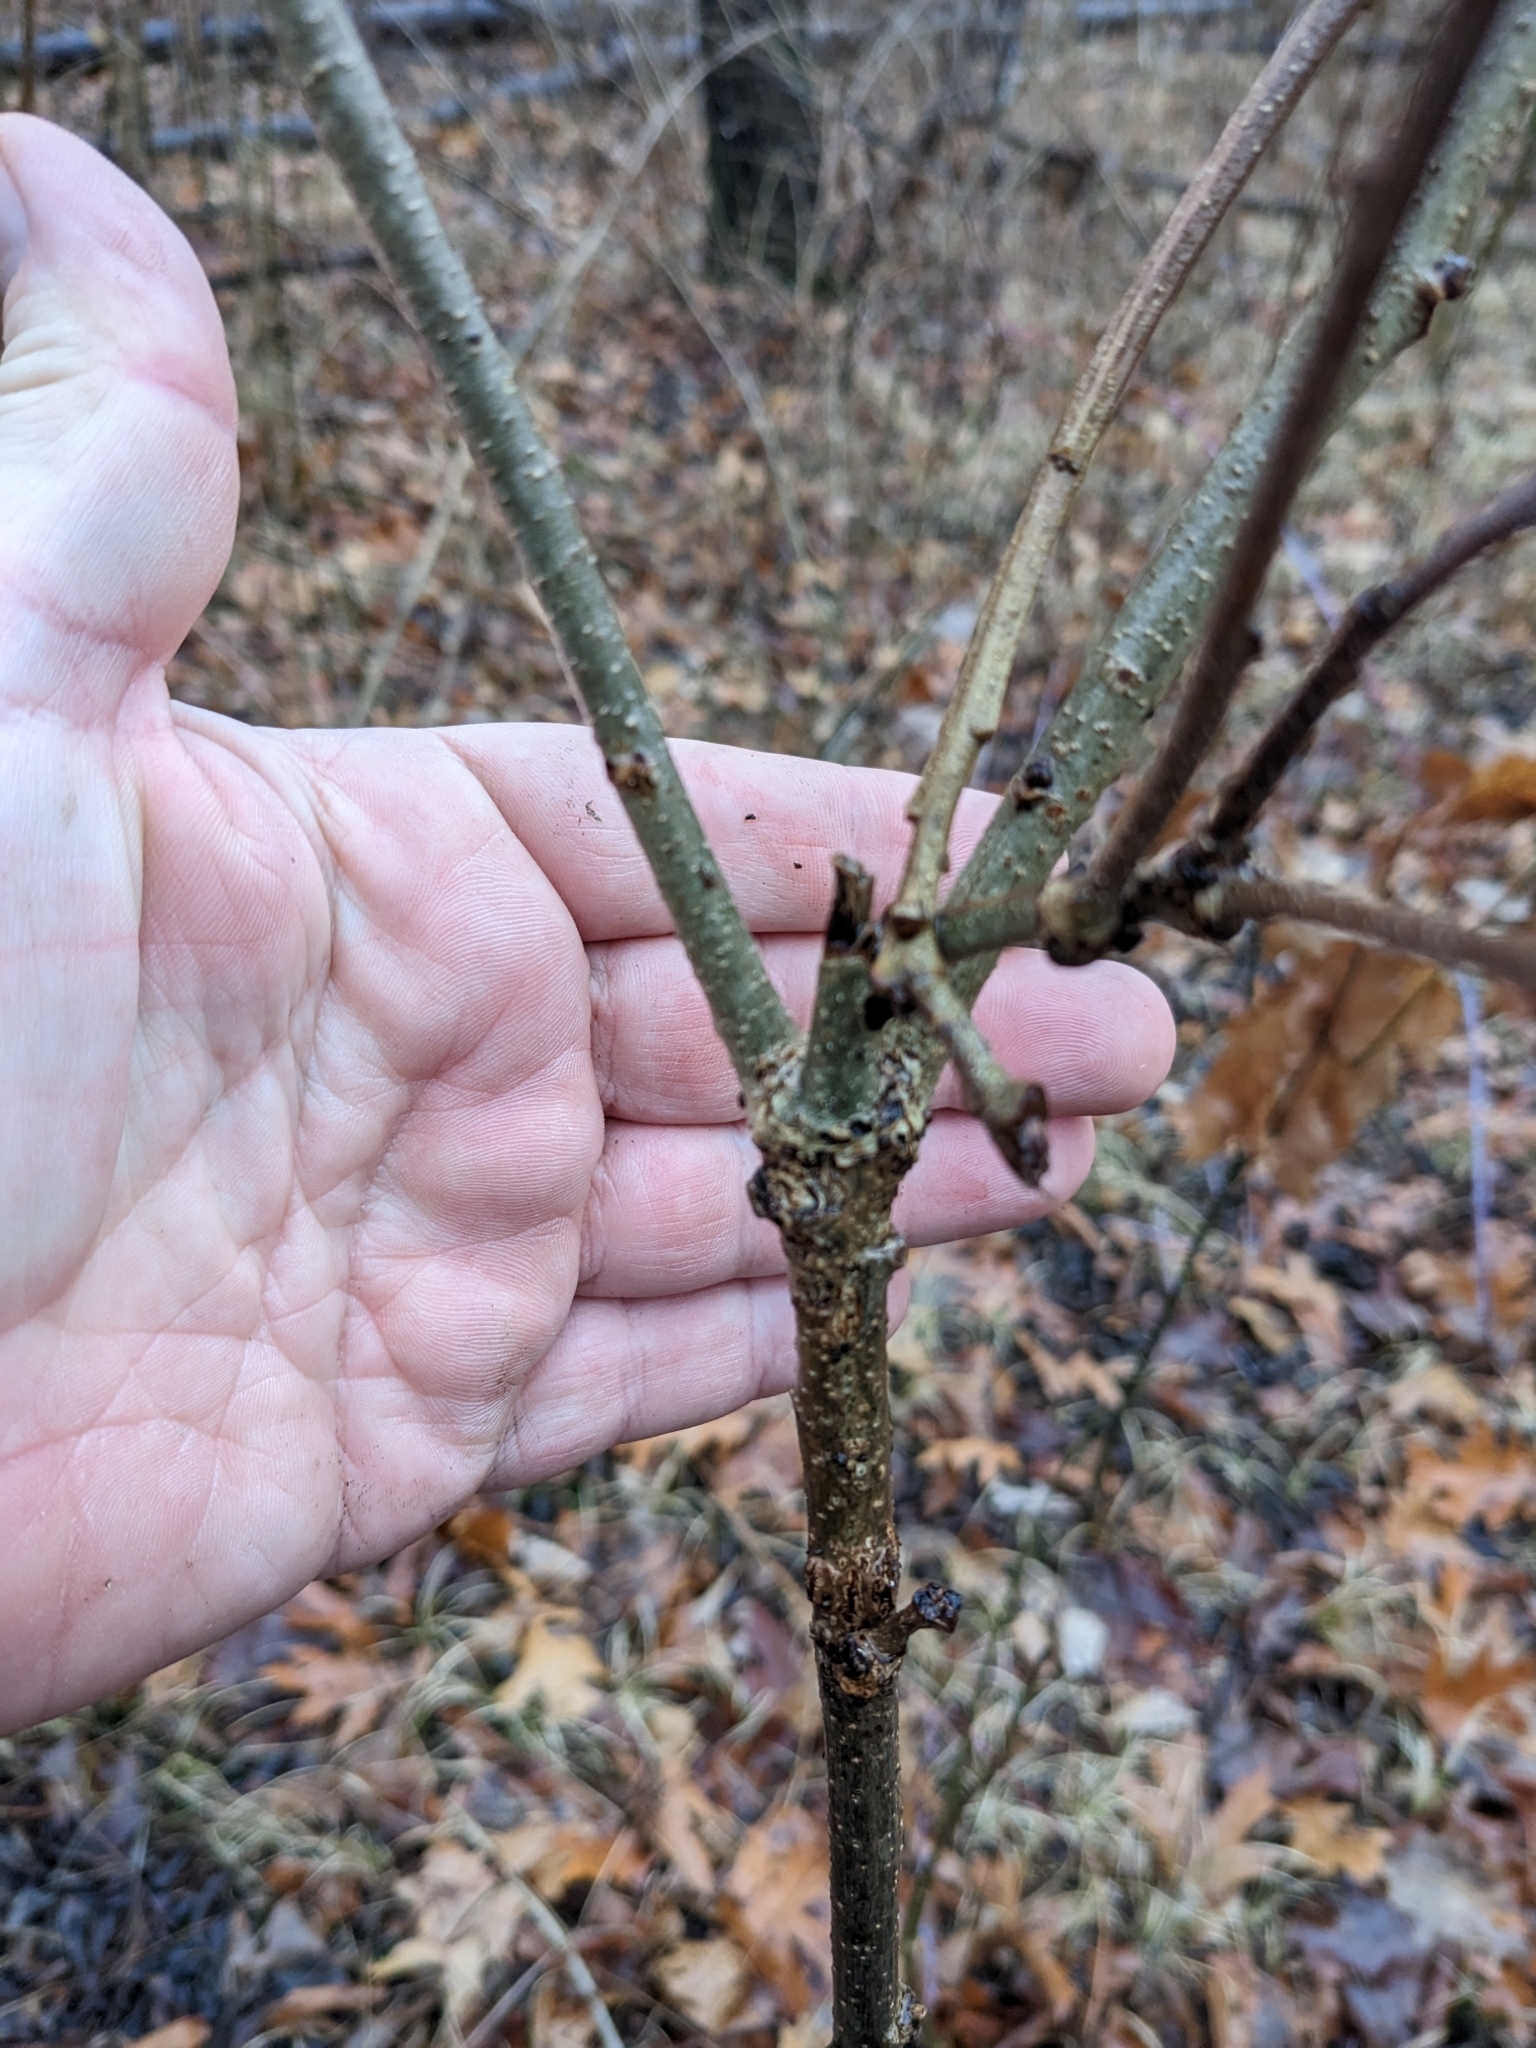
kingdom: Animalia
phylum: Arthropoda
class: Insecta
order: Hymenoptera
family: Cynipidae
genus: Disholcaspis
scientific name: Disholcaspis
